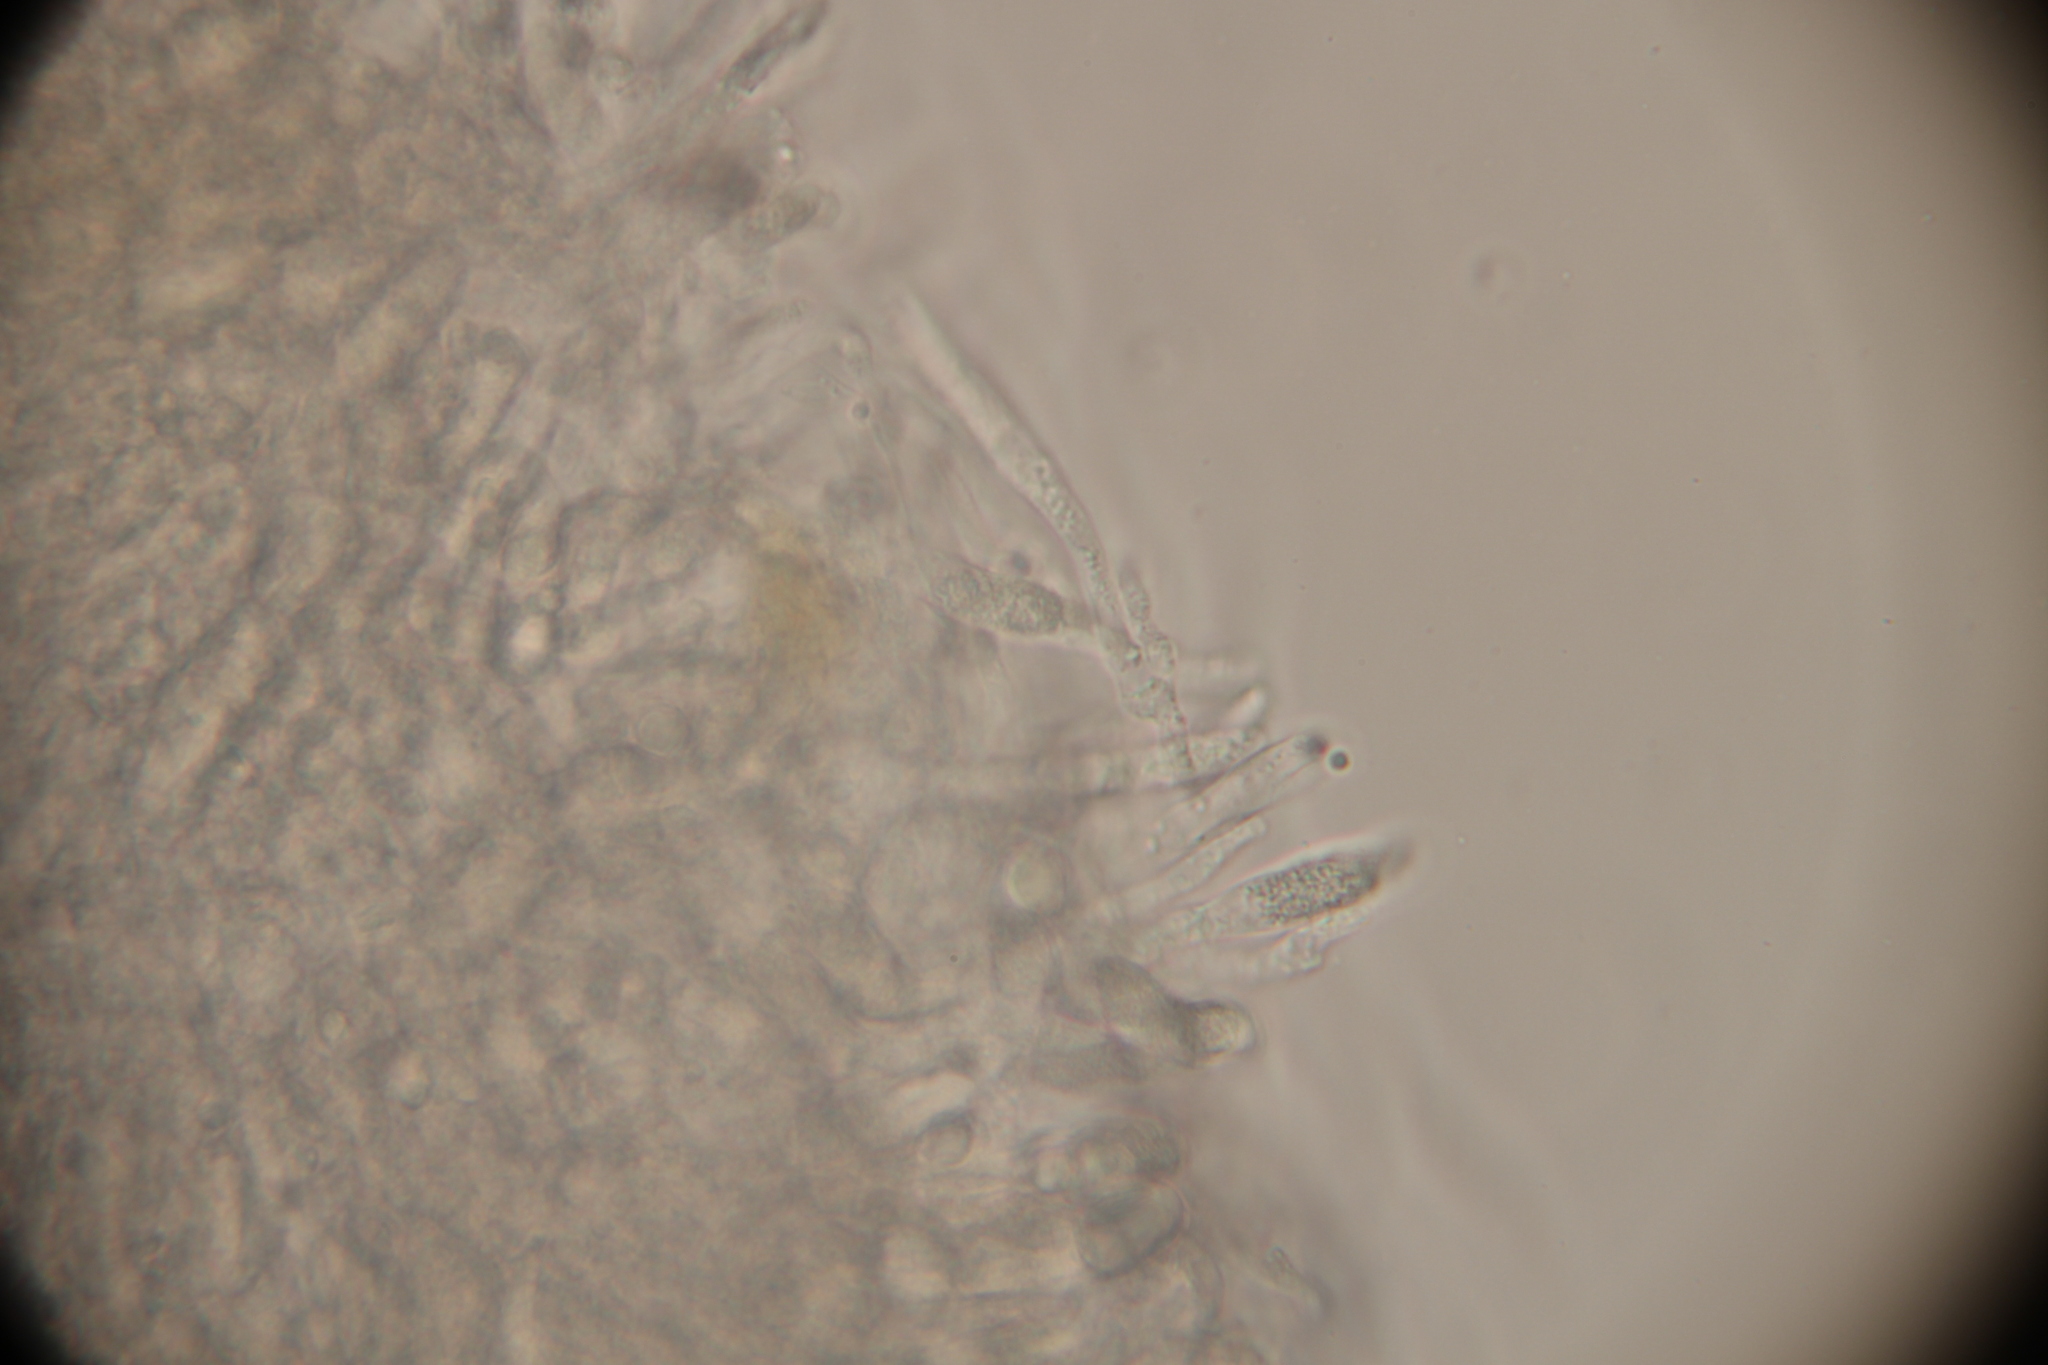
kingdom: Fungi
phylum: Basidiomycota
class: Agaricomycetes
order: Agaricales
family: Physalacriaceae
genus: Cyptotrama
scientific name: Cyptotrama chrysopepla
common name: Golden coincap
